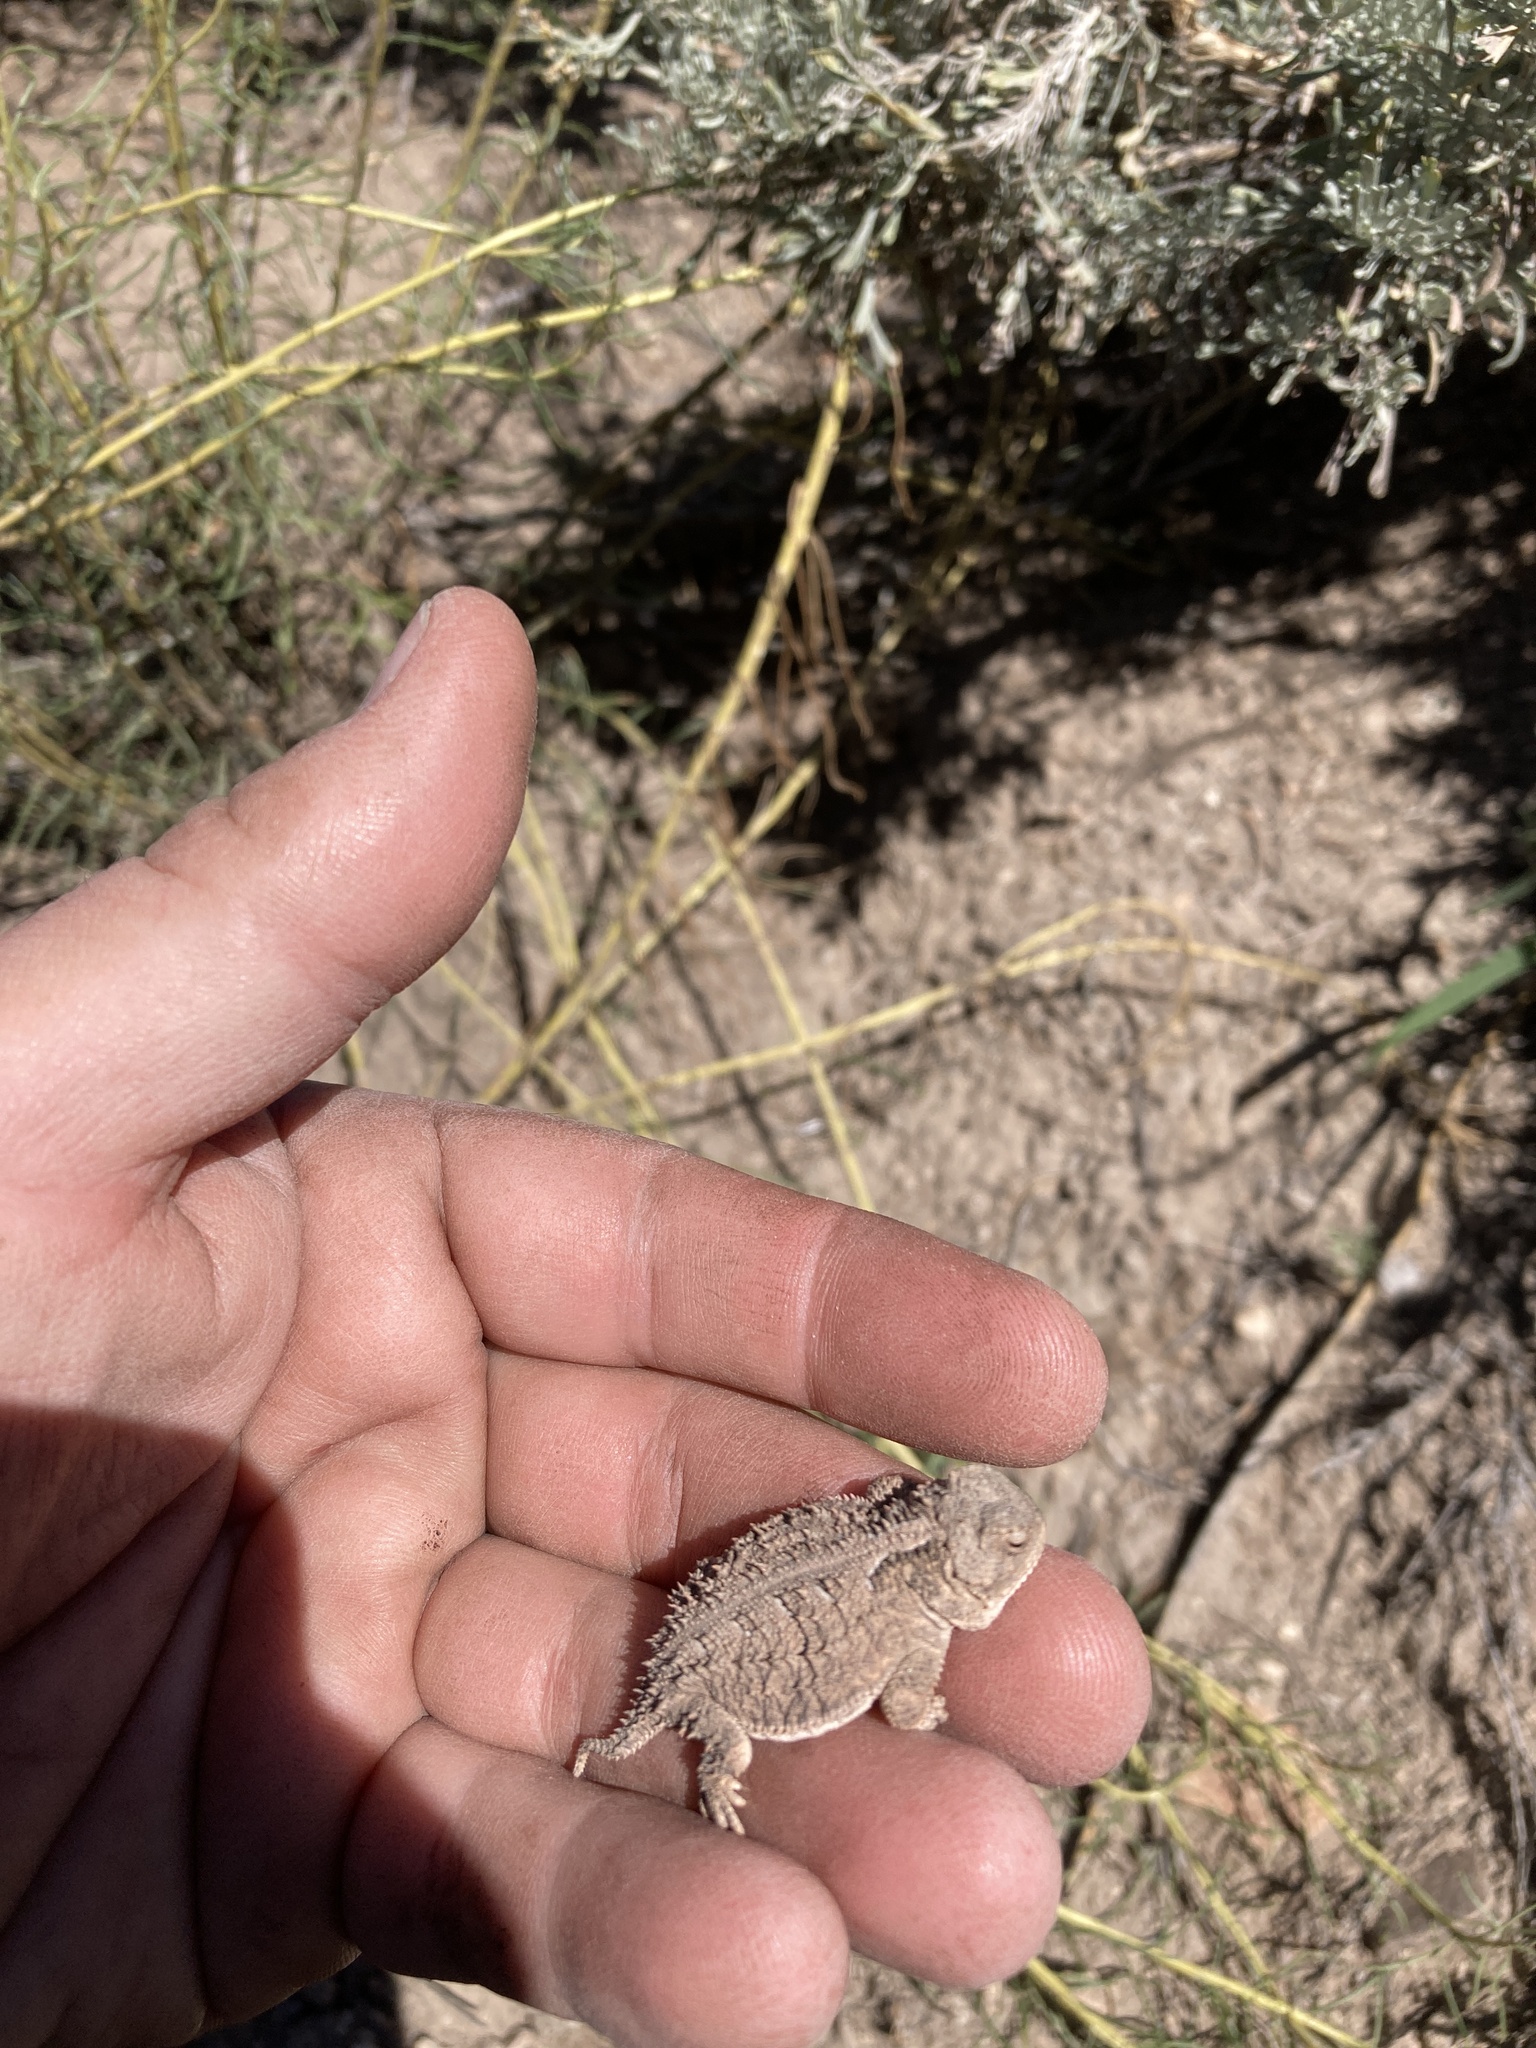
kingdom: Animalia
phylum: Chordata
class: Squamata
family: Phrynosomatidae
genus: Phrynosoma
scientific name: Phrynosoma hernandesi
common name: Greater short-horned lizard
